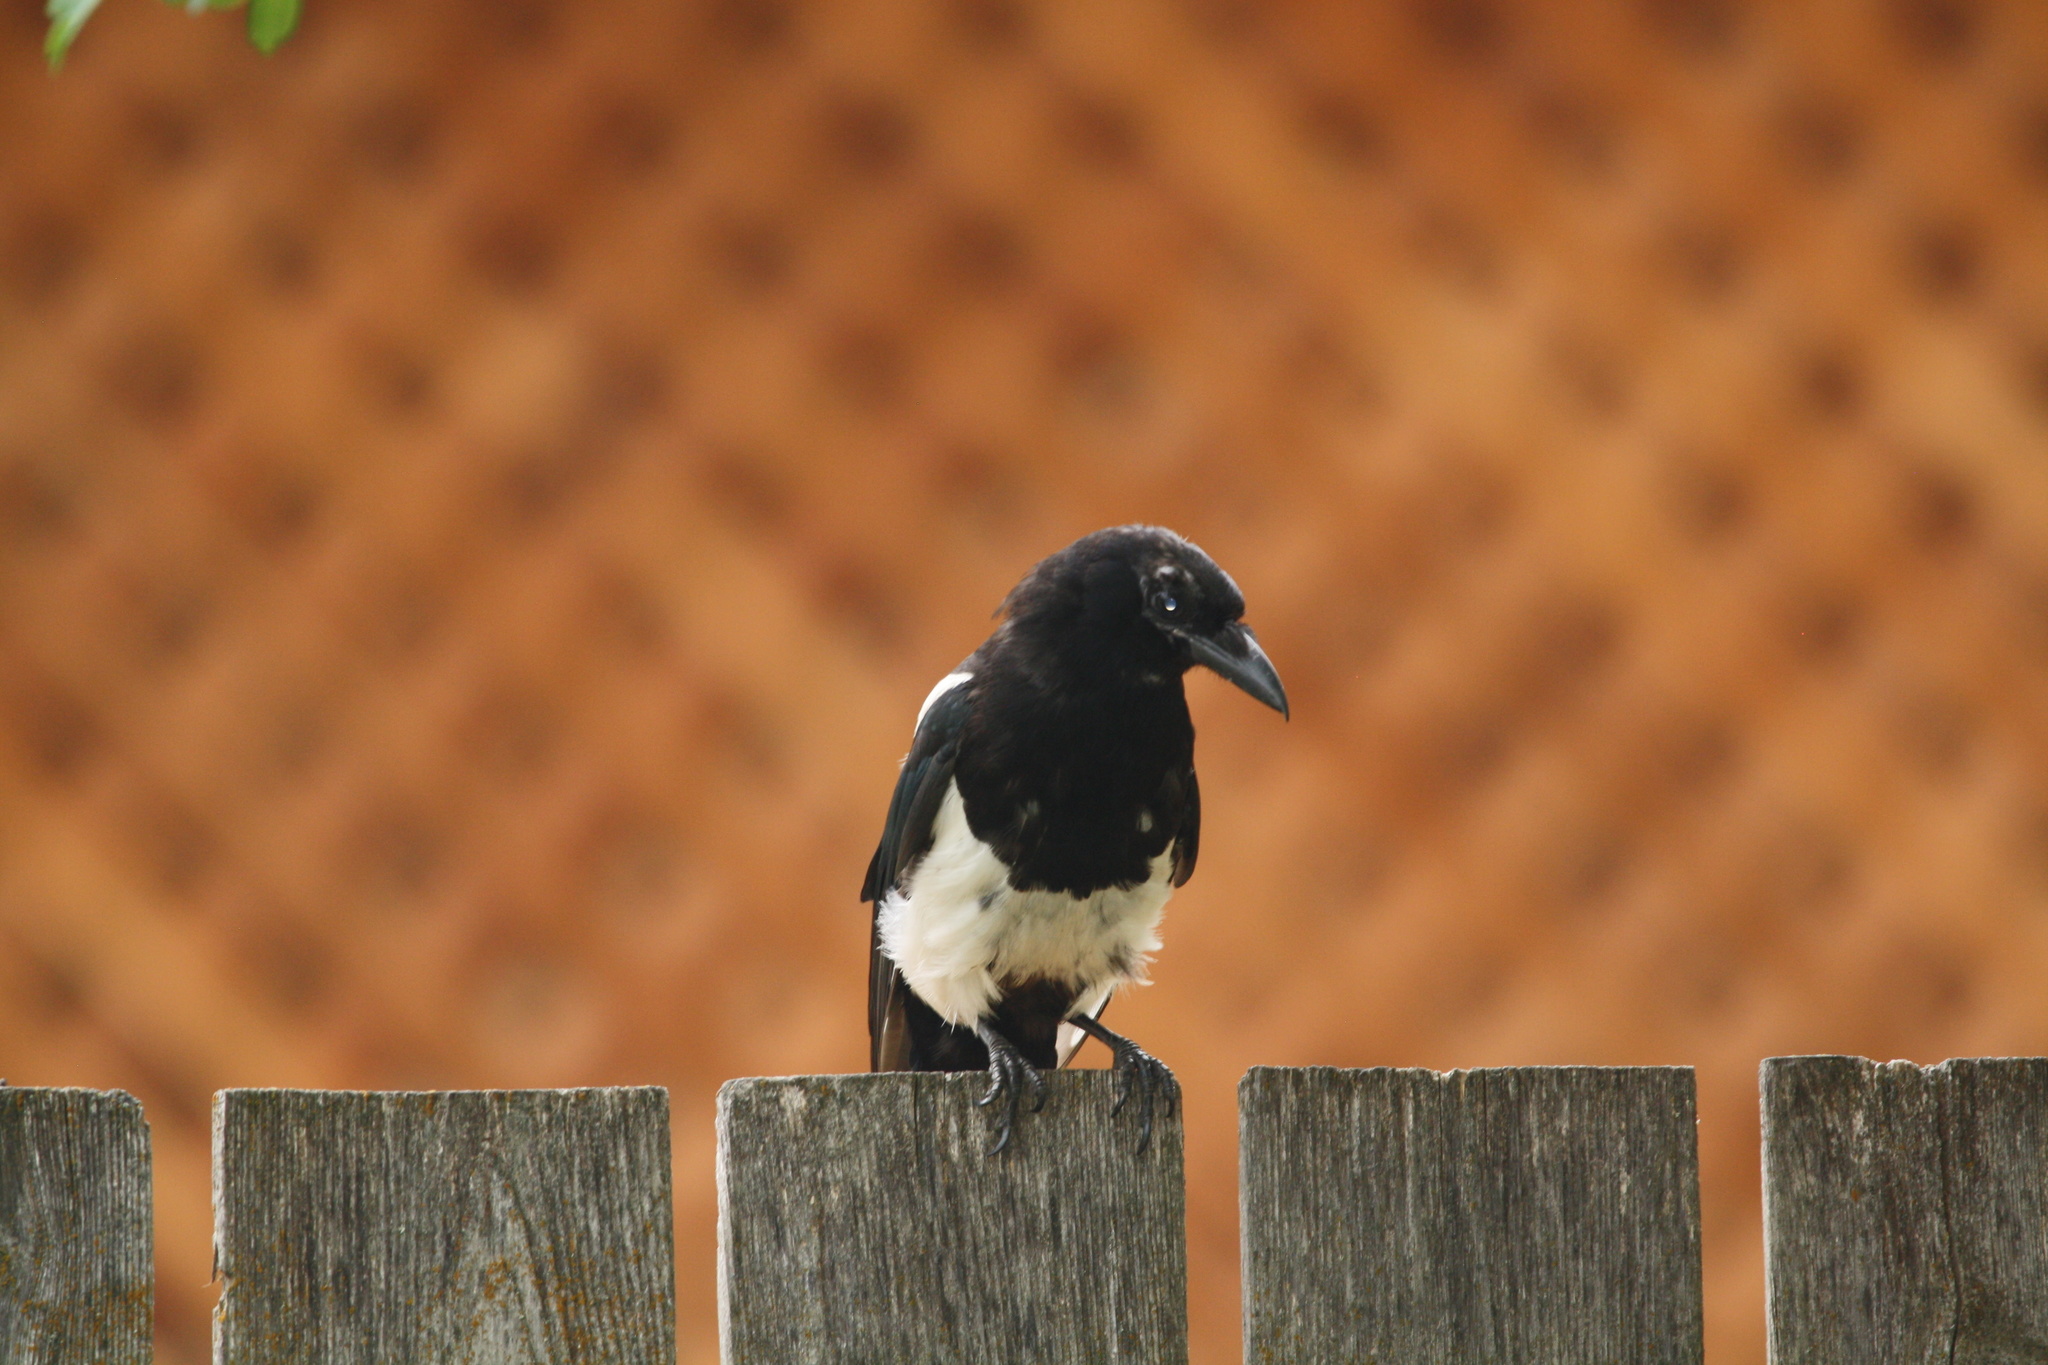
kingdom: Animalia
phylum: Chordata
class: Aves
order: Passeriformes
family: Corvidae
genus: Pica
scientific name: Pica hudsonia
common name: Black-billed magpie
